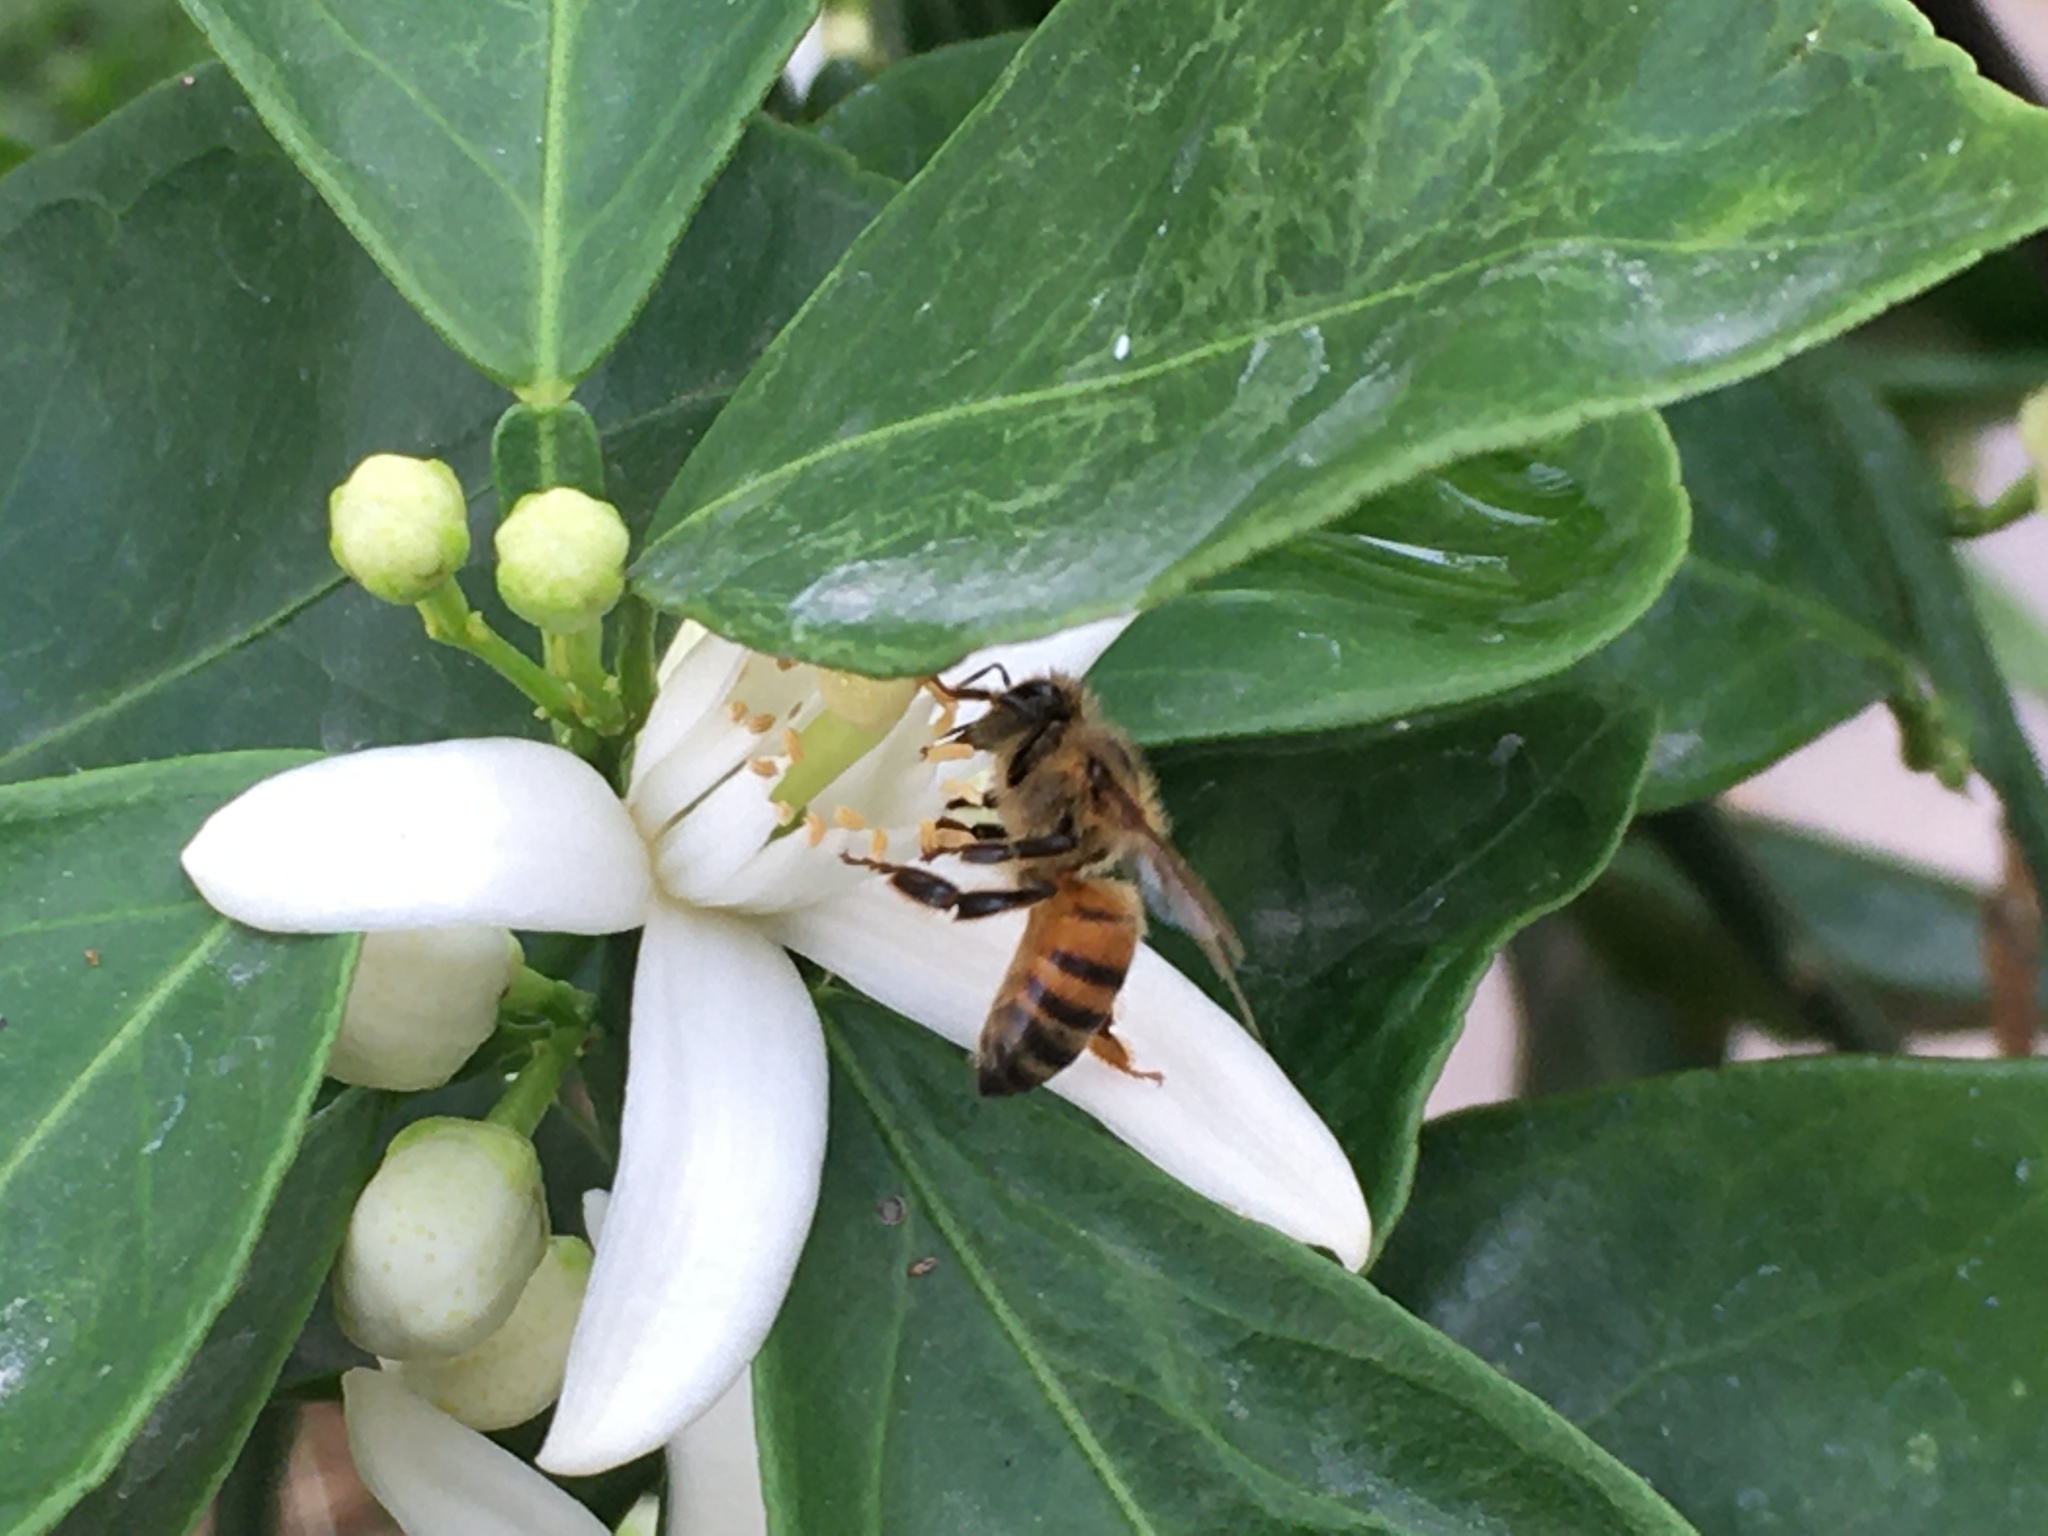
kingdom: Animalia
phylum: Arthropoda
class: Insecta
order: Hymenoptera
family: Apidae
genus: Apis
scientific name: Apis mellifera
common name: Honey bee
